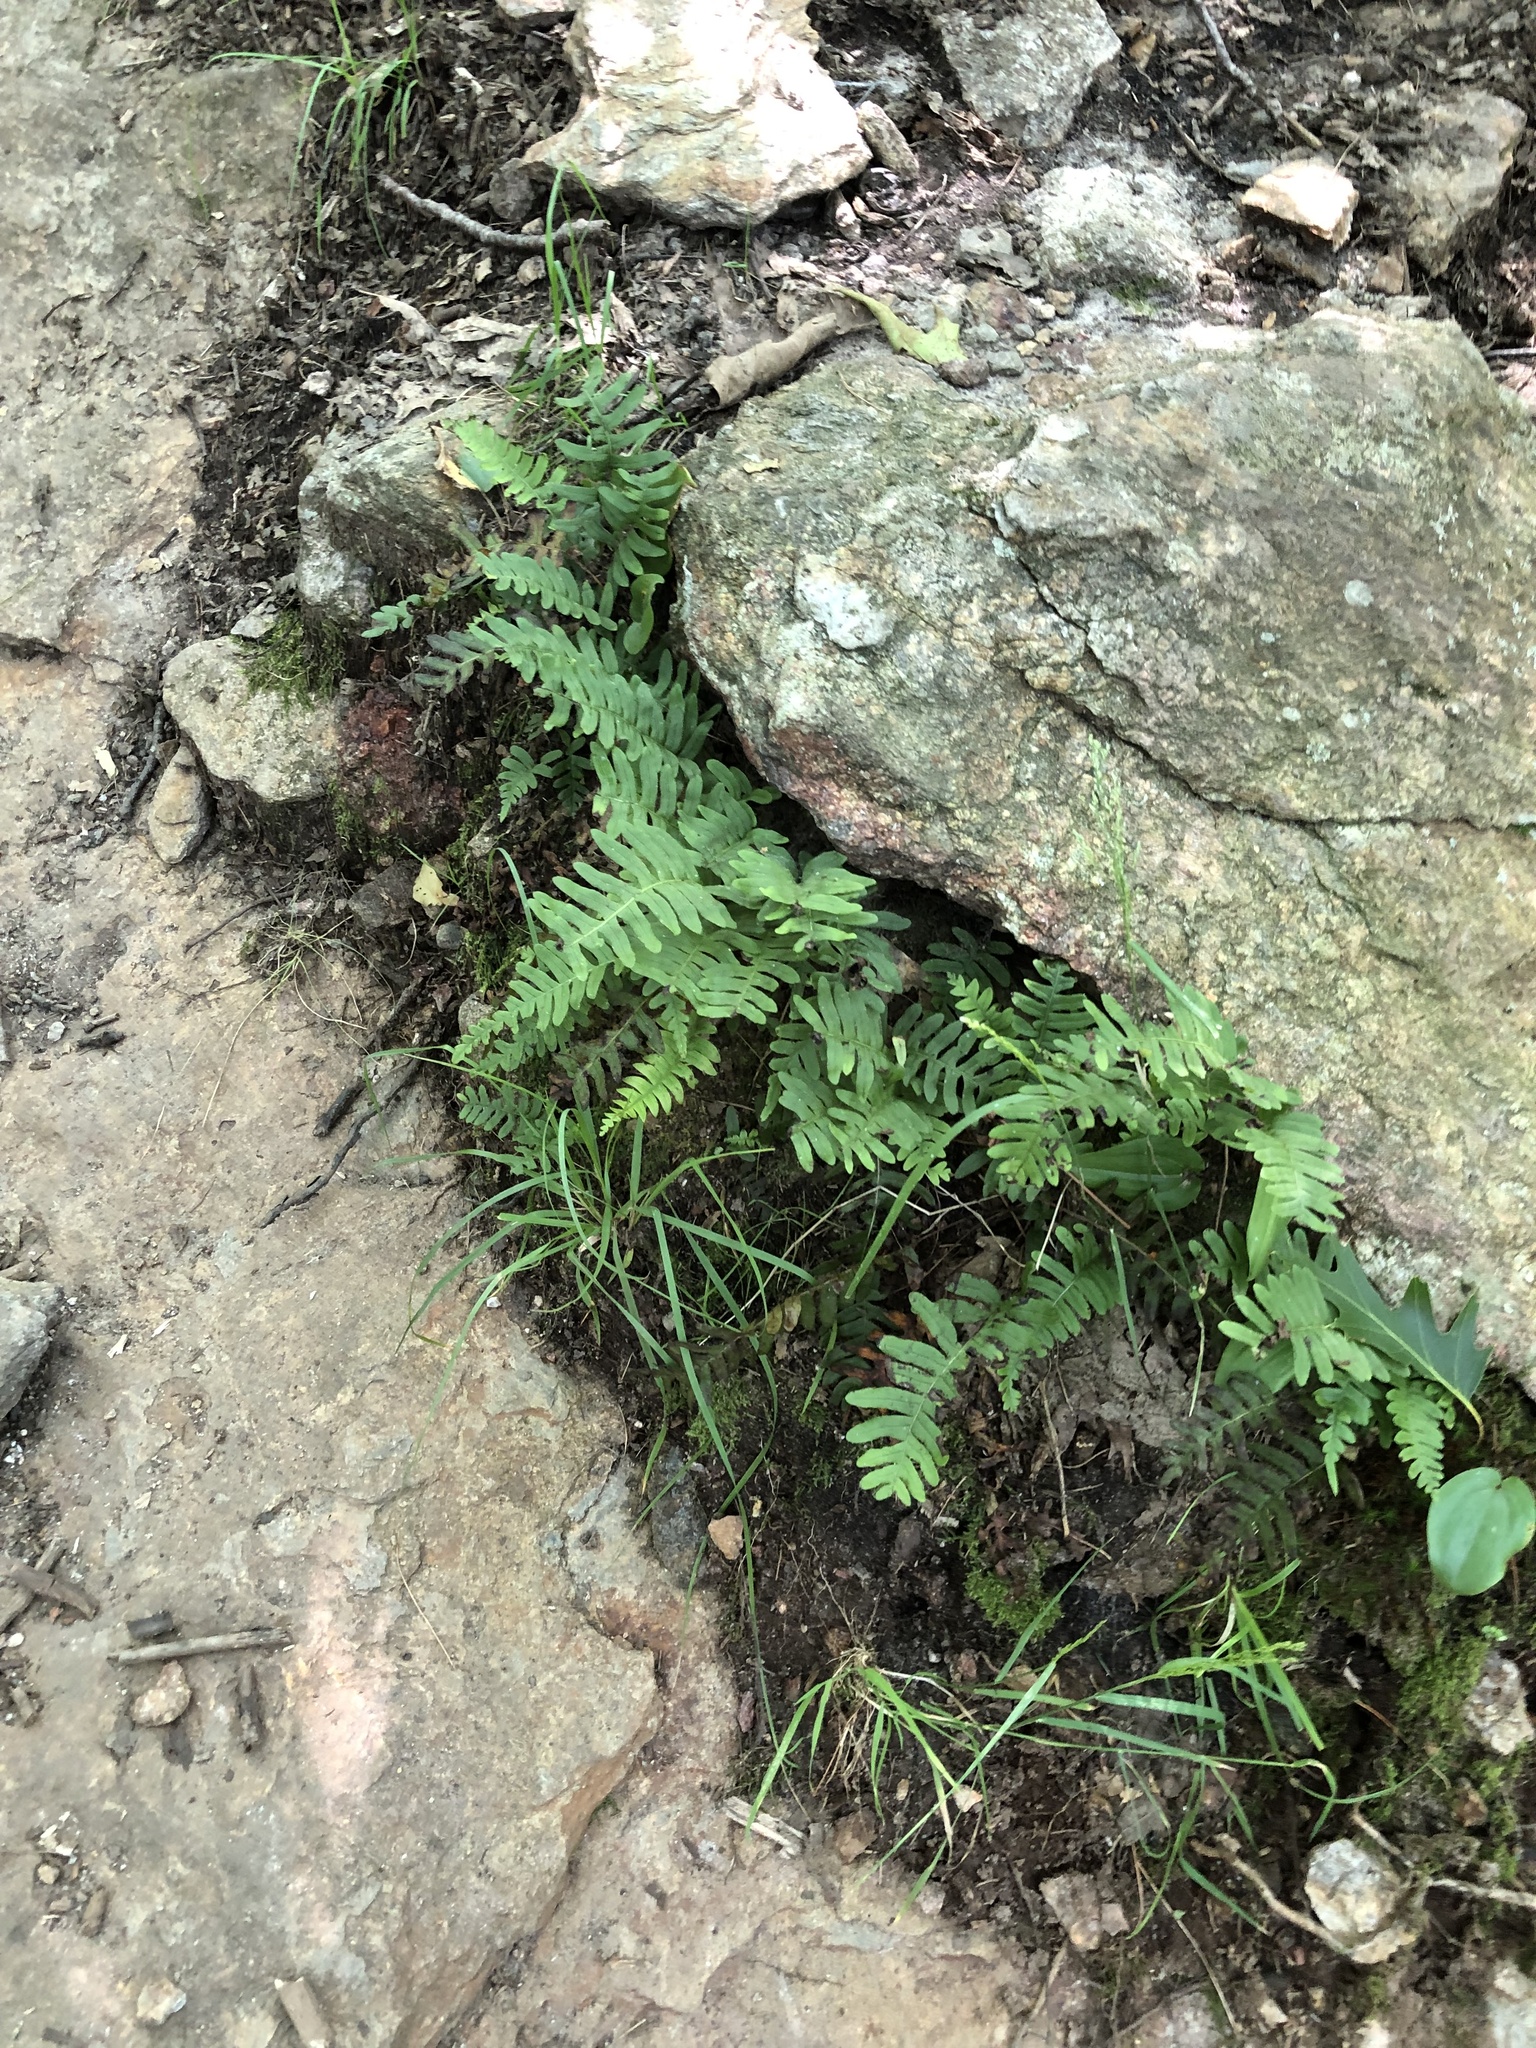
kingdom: Plantae
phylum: Tracheophyta
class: Polypodiopsida
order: Polypodiales
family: Polypodiaceae
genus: Polypodium
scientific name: Polypodium virginianum
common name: American wall fern
